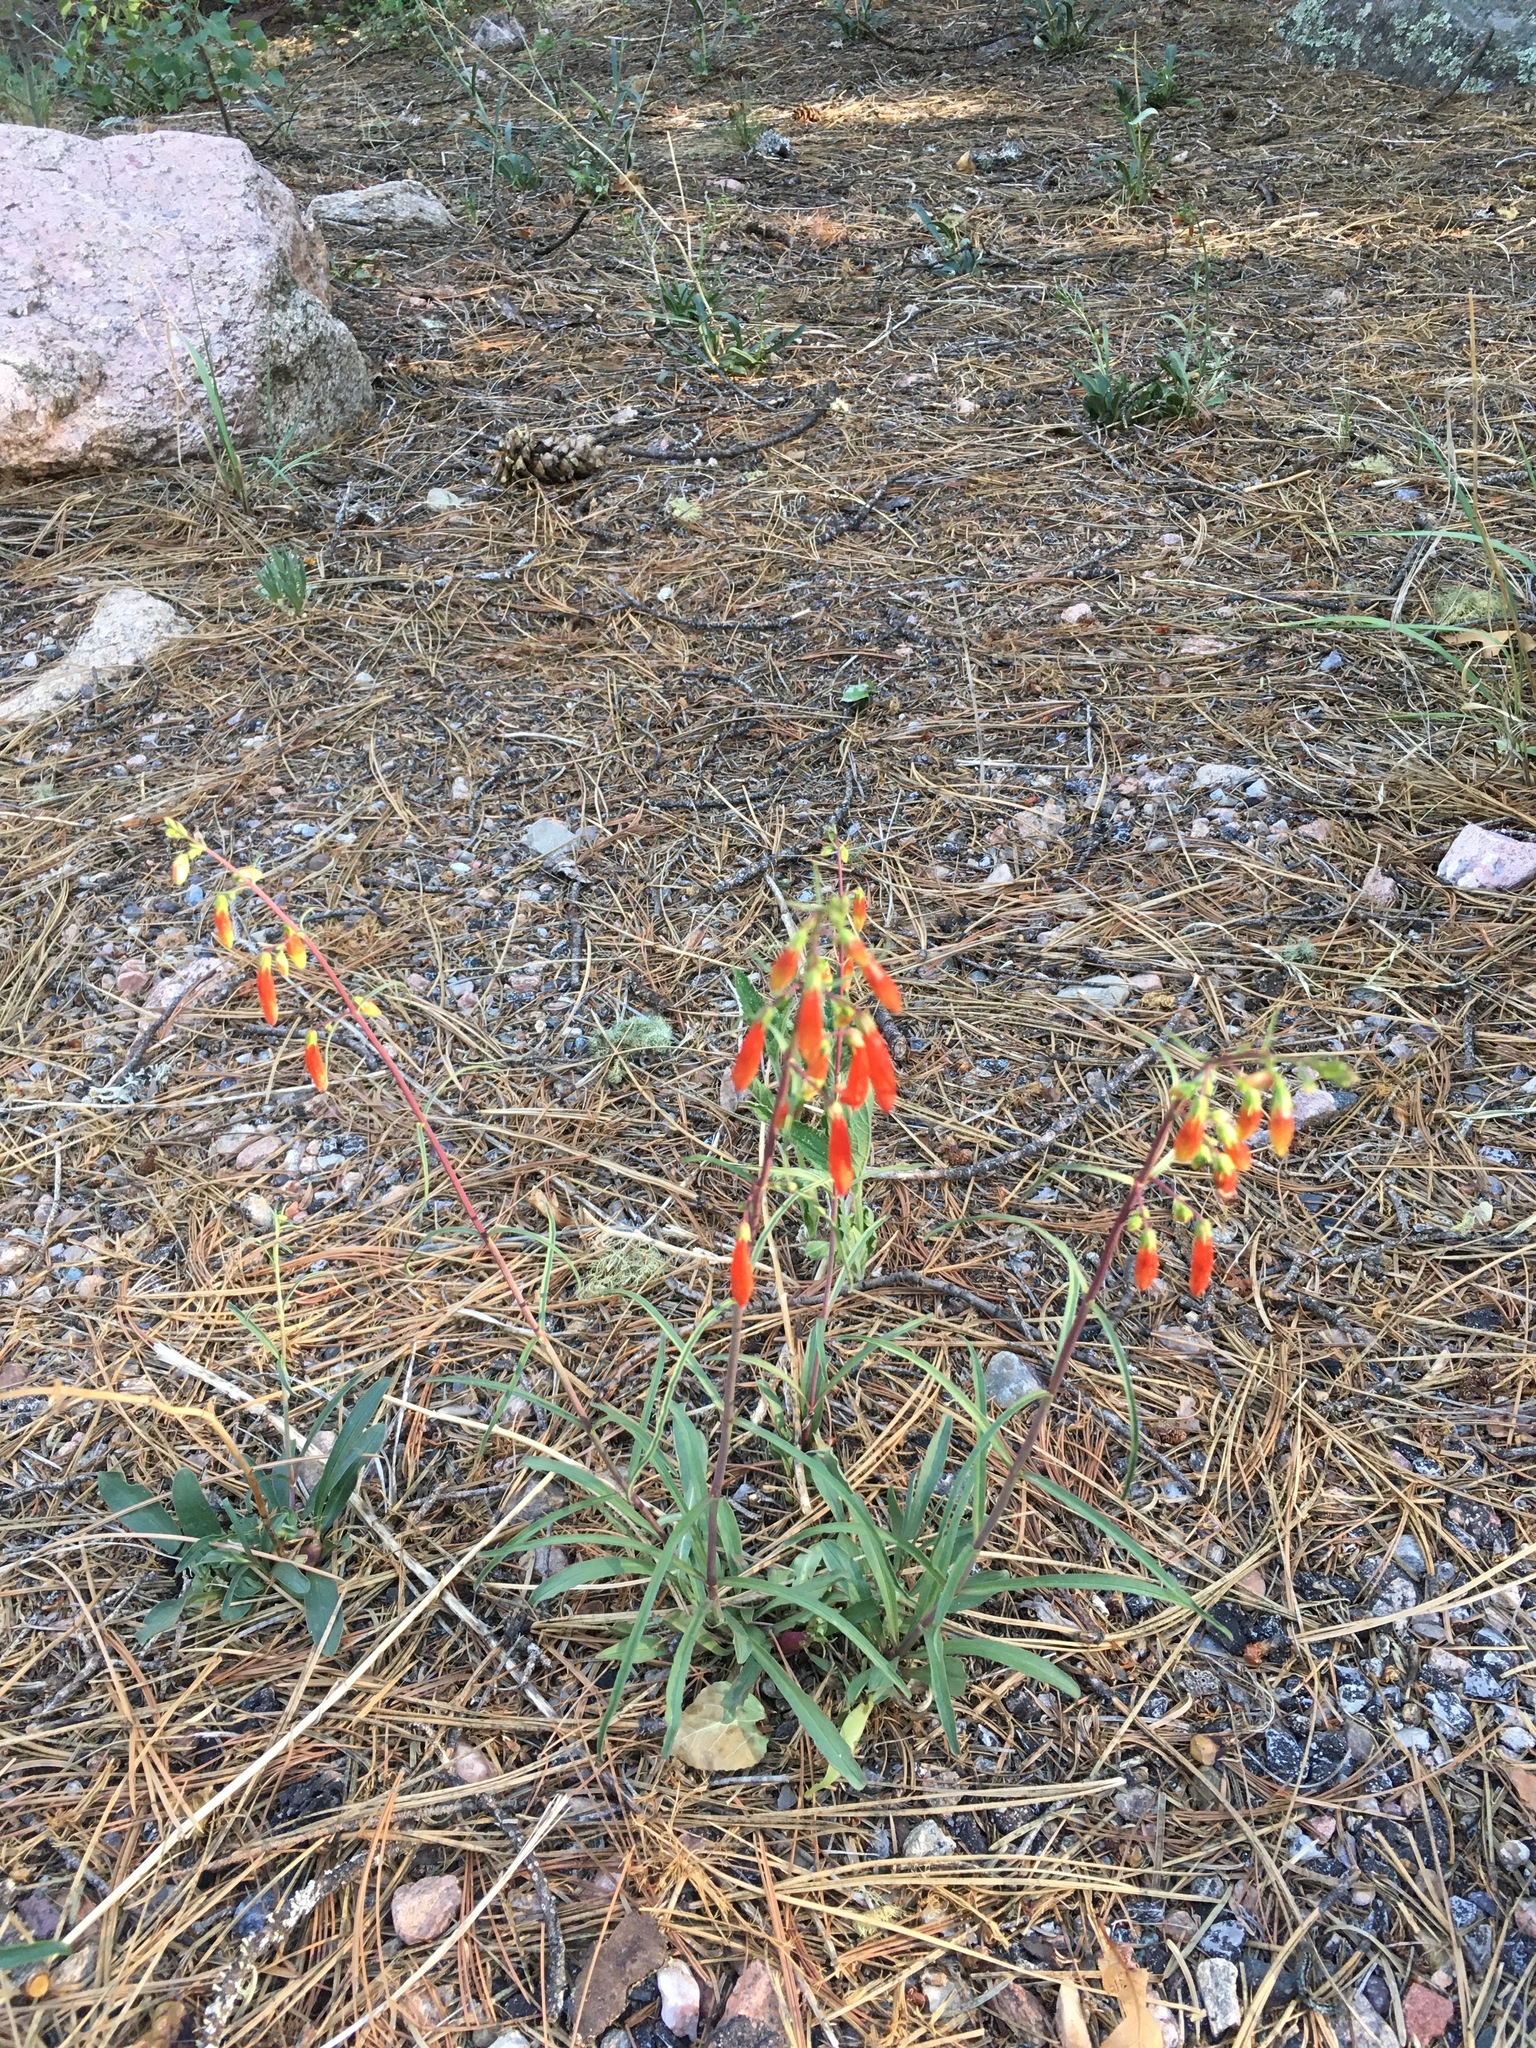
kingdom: Plantae
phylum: Tracheophyta
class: Magnoliopsida
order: Lamiales
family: Plantaginaceae
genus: Penstemon
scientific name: Penstemon barbatus
